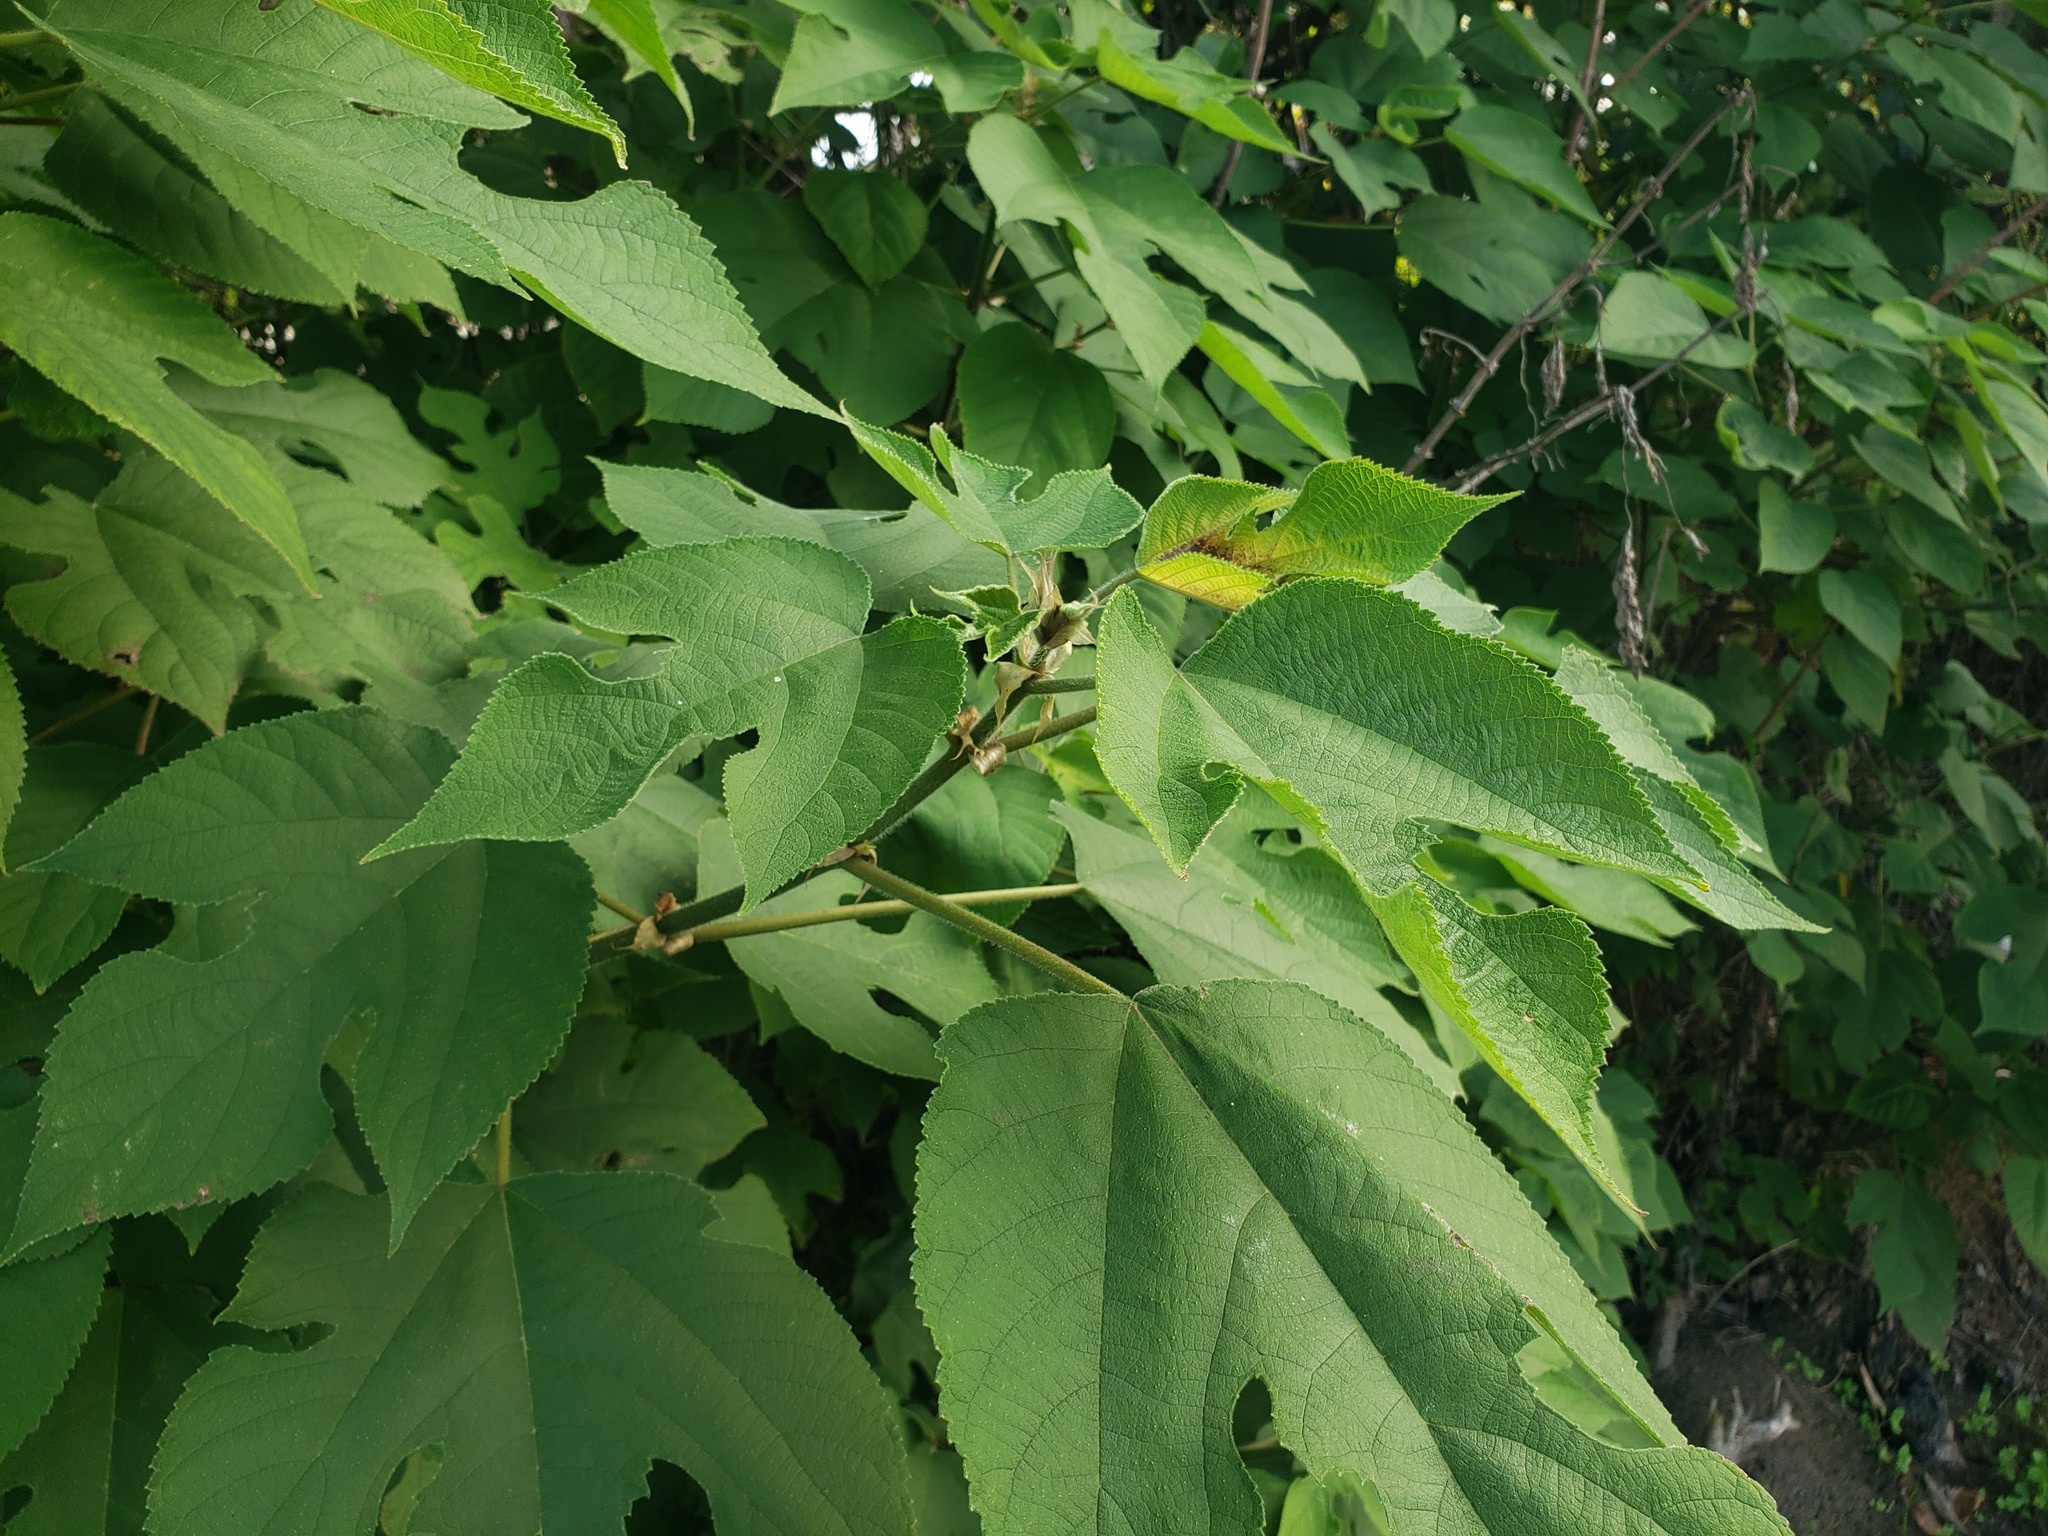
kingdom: Plantae
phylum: Tracheophyta
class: Magnoliopsida
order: Rosales
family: Moraceae
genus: Broussonetia
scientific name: Broussonetia papyrifera
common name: Paper mulberry
